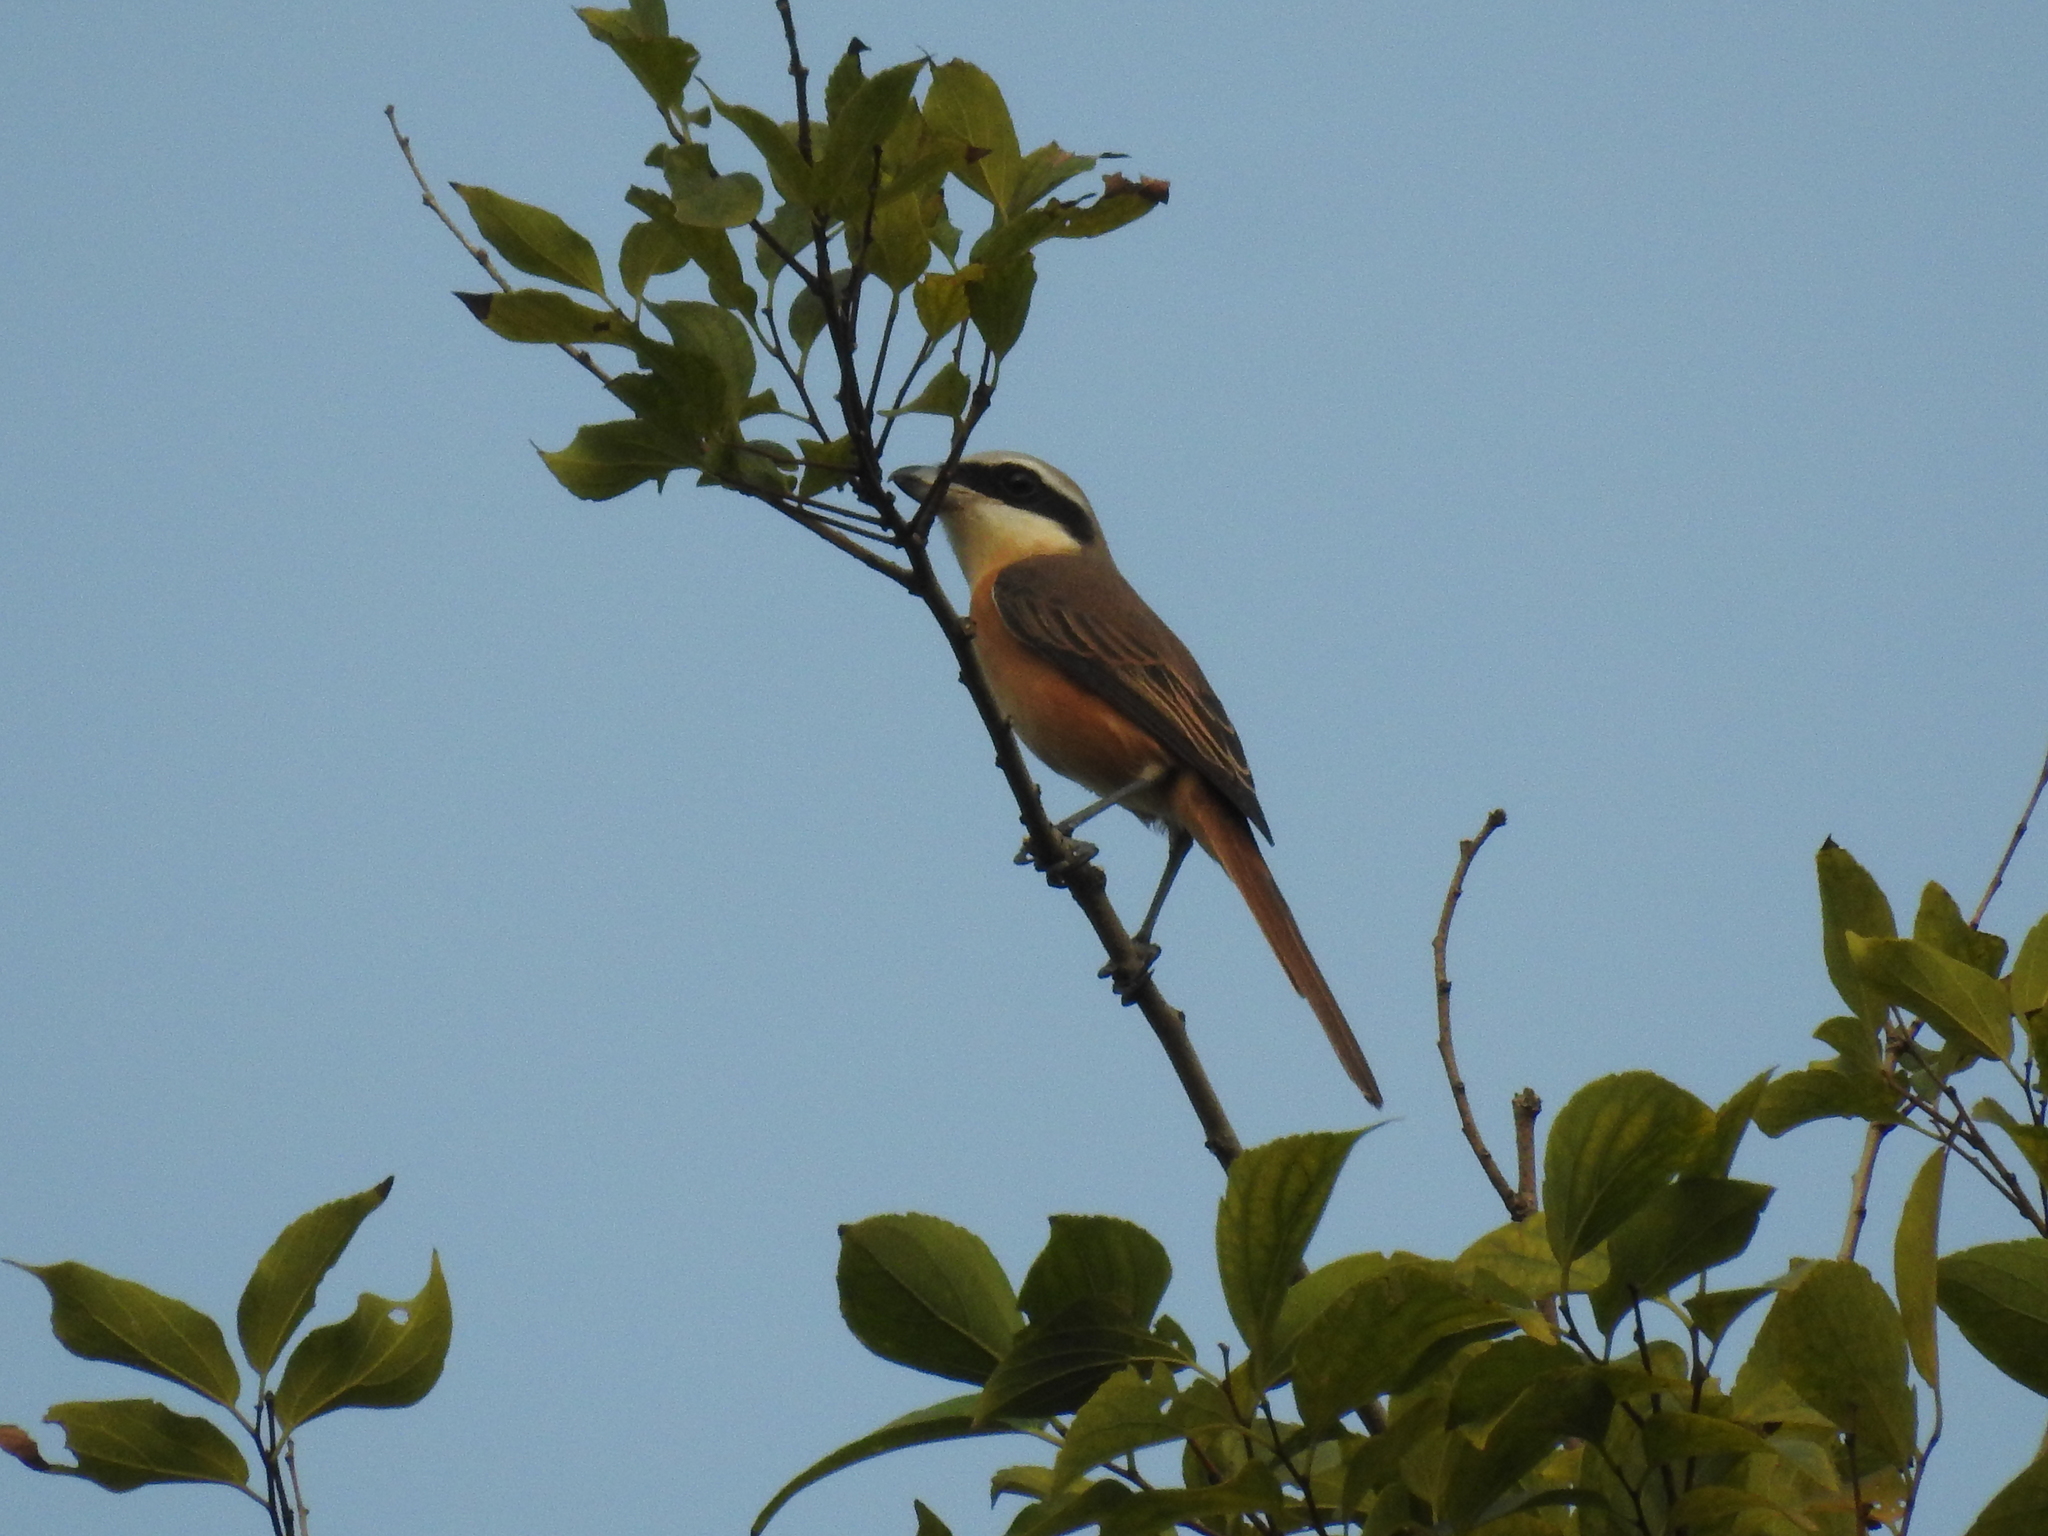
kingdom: Animalia
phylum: Chordata
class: Aves
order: Passeriformes
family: Laniidae
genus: Lanius
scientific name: Lanius cristatus
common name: Brown shrike
